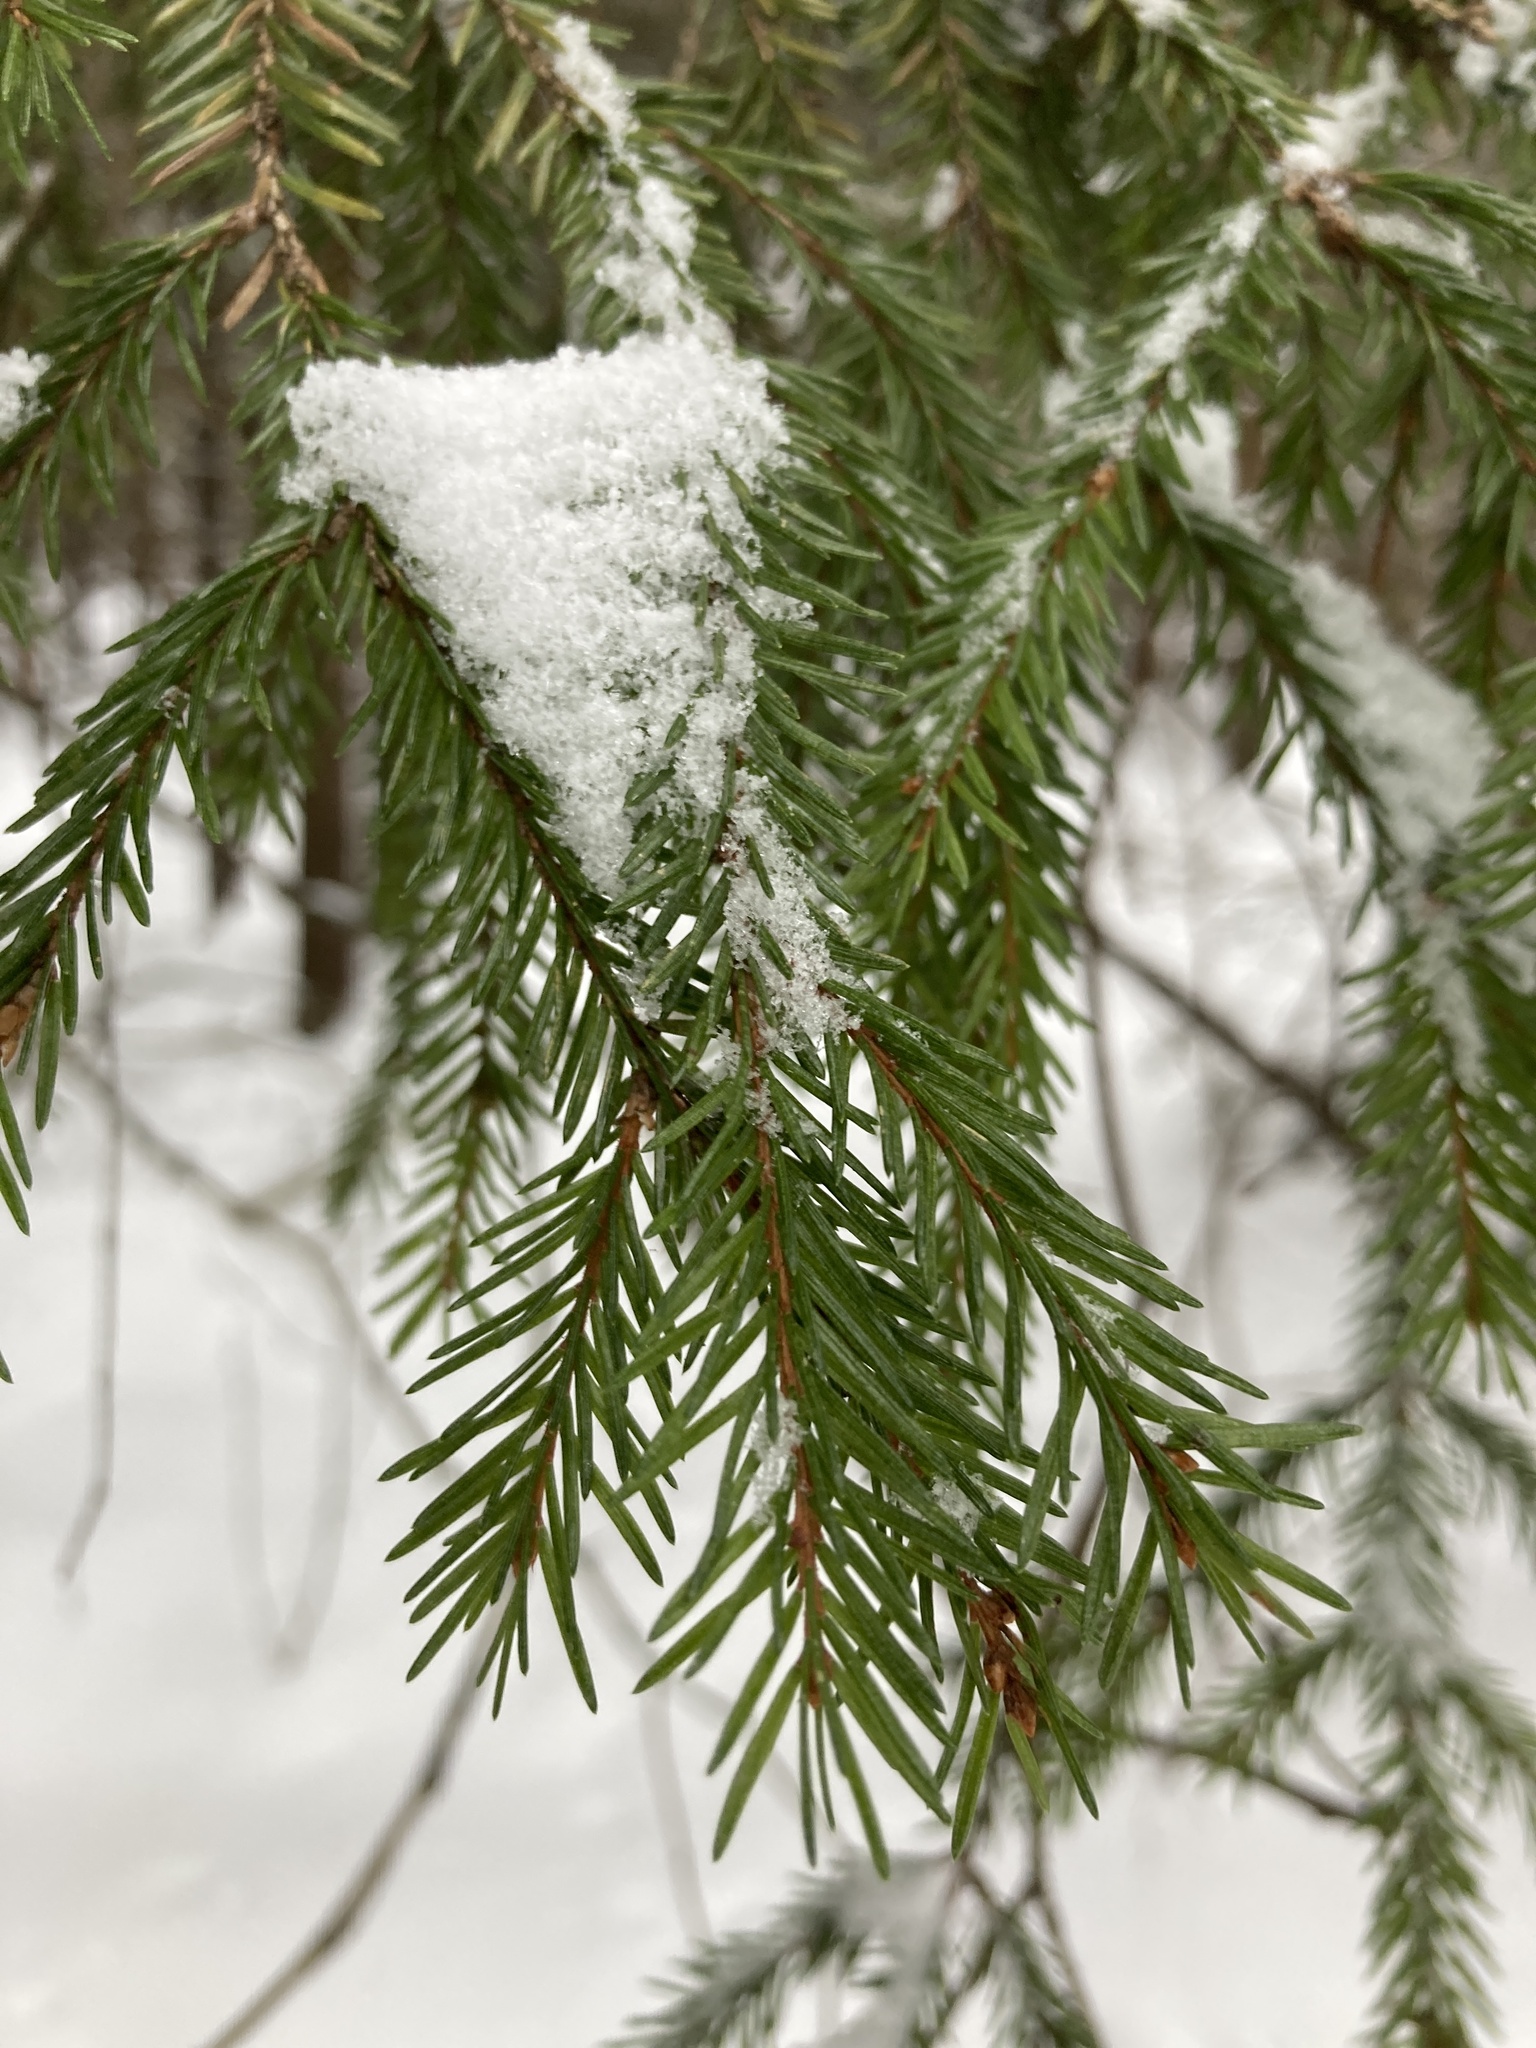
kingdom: Plantae
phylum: Tracheophyta
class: Pinopsida
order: Pinales
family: Pinaceae
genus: Picea
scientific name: Picea abies
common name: Norway spruce
